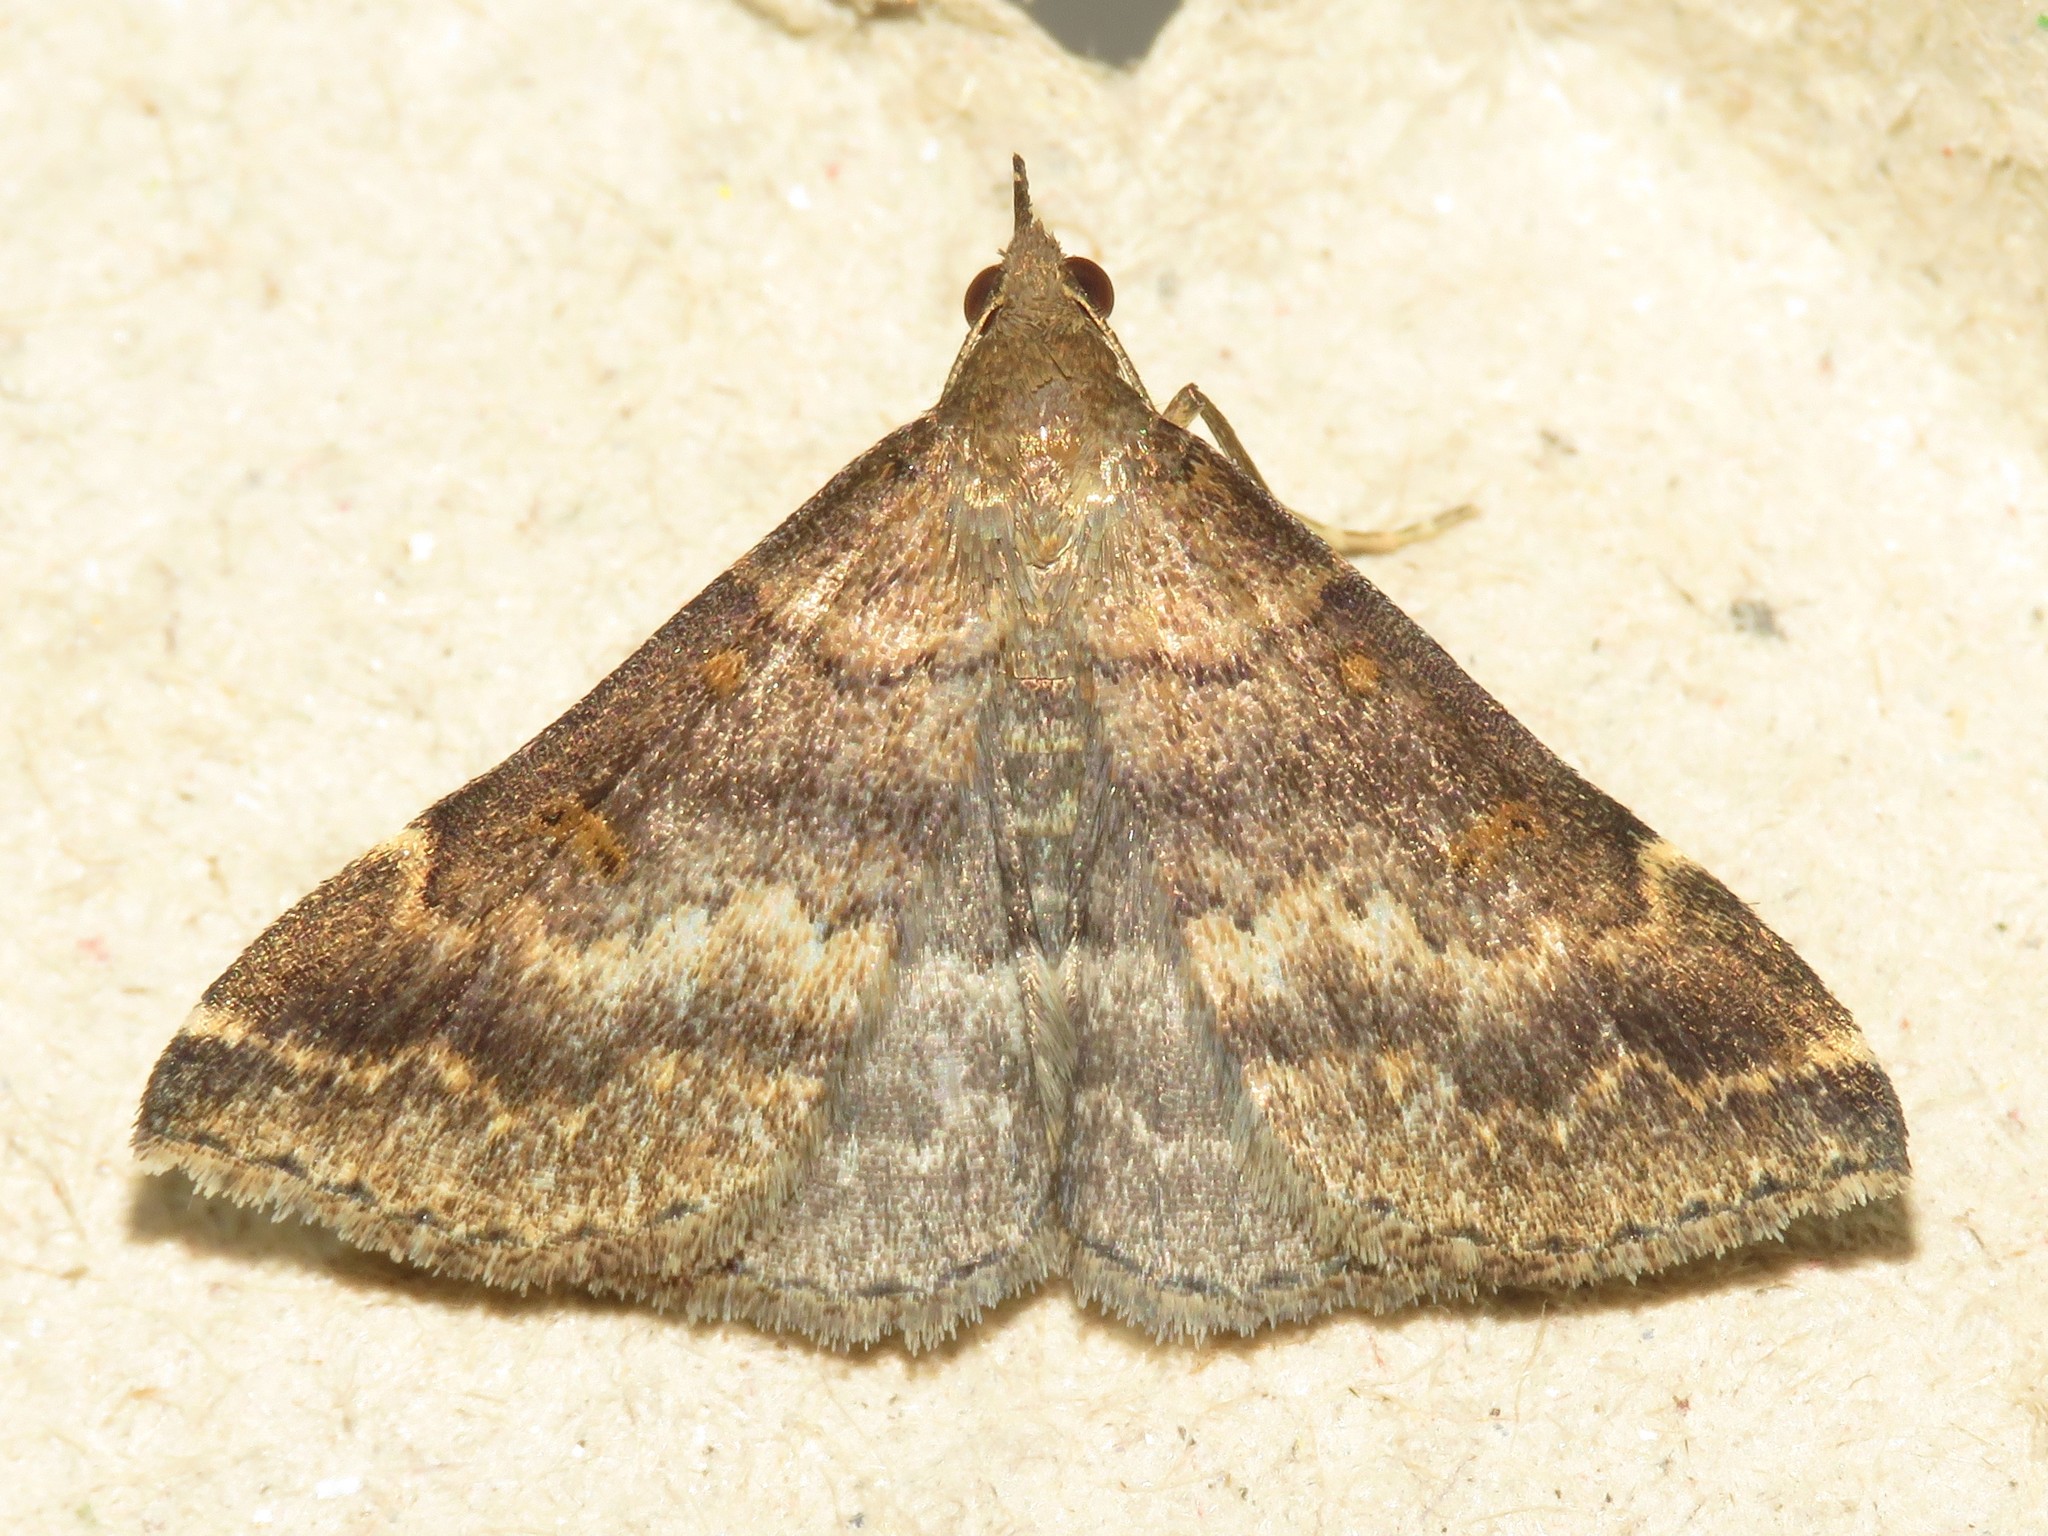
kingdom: Animalia
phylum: Arthropoda
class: Insecta
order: Lepidoptera
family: Erebidae
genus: Renia
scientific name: Renia factiosalis
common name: Sociable renia moth
